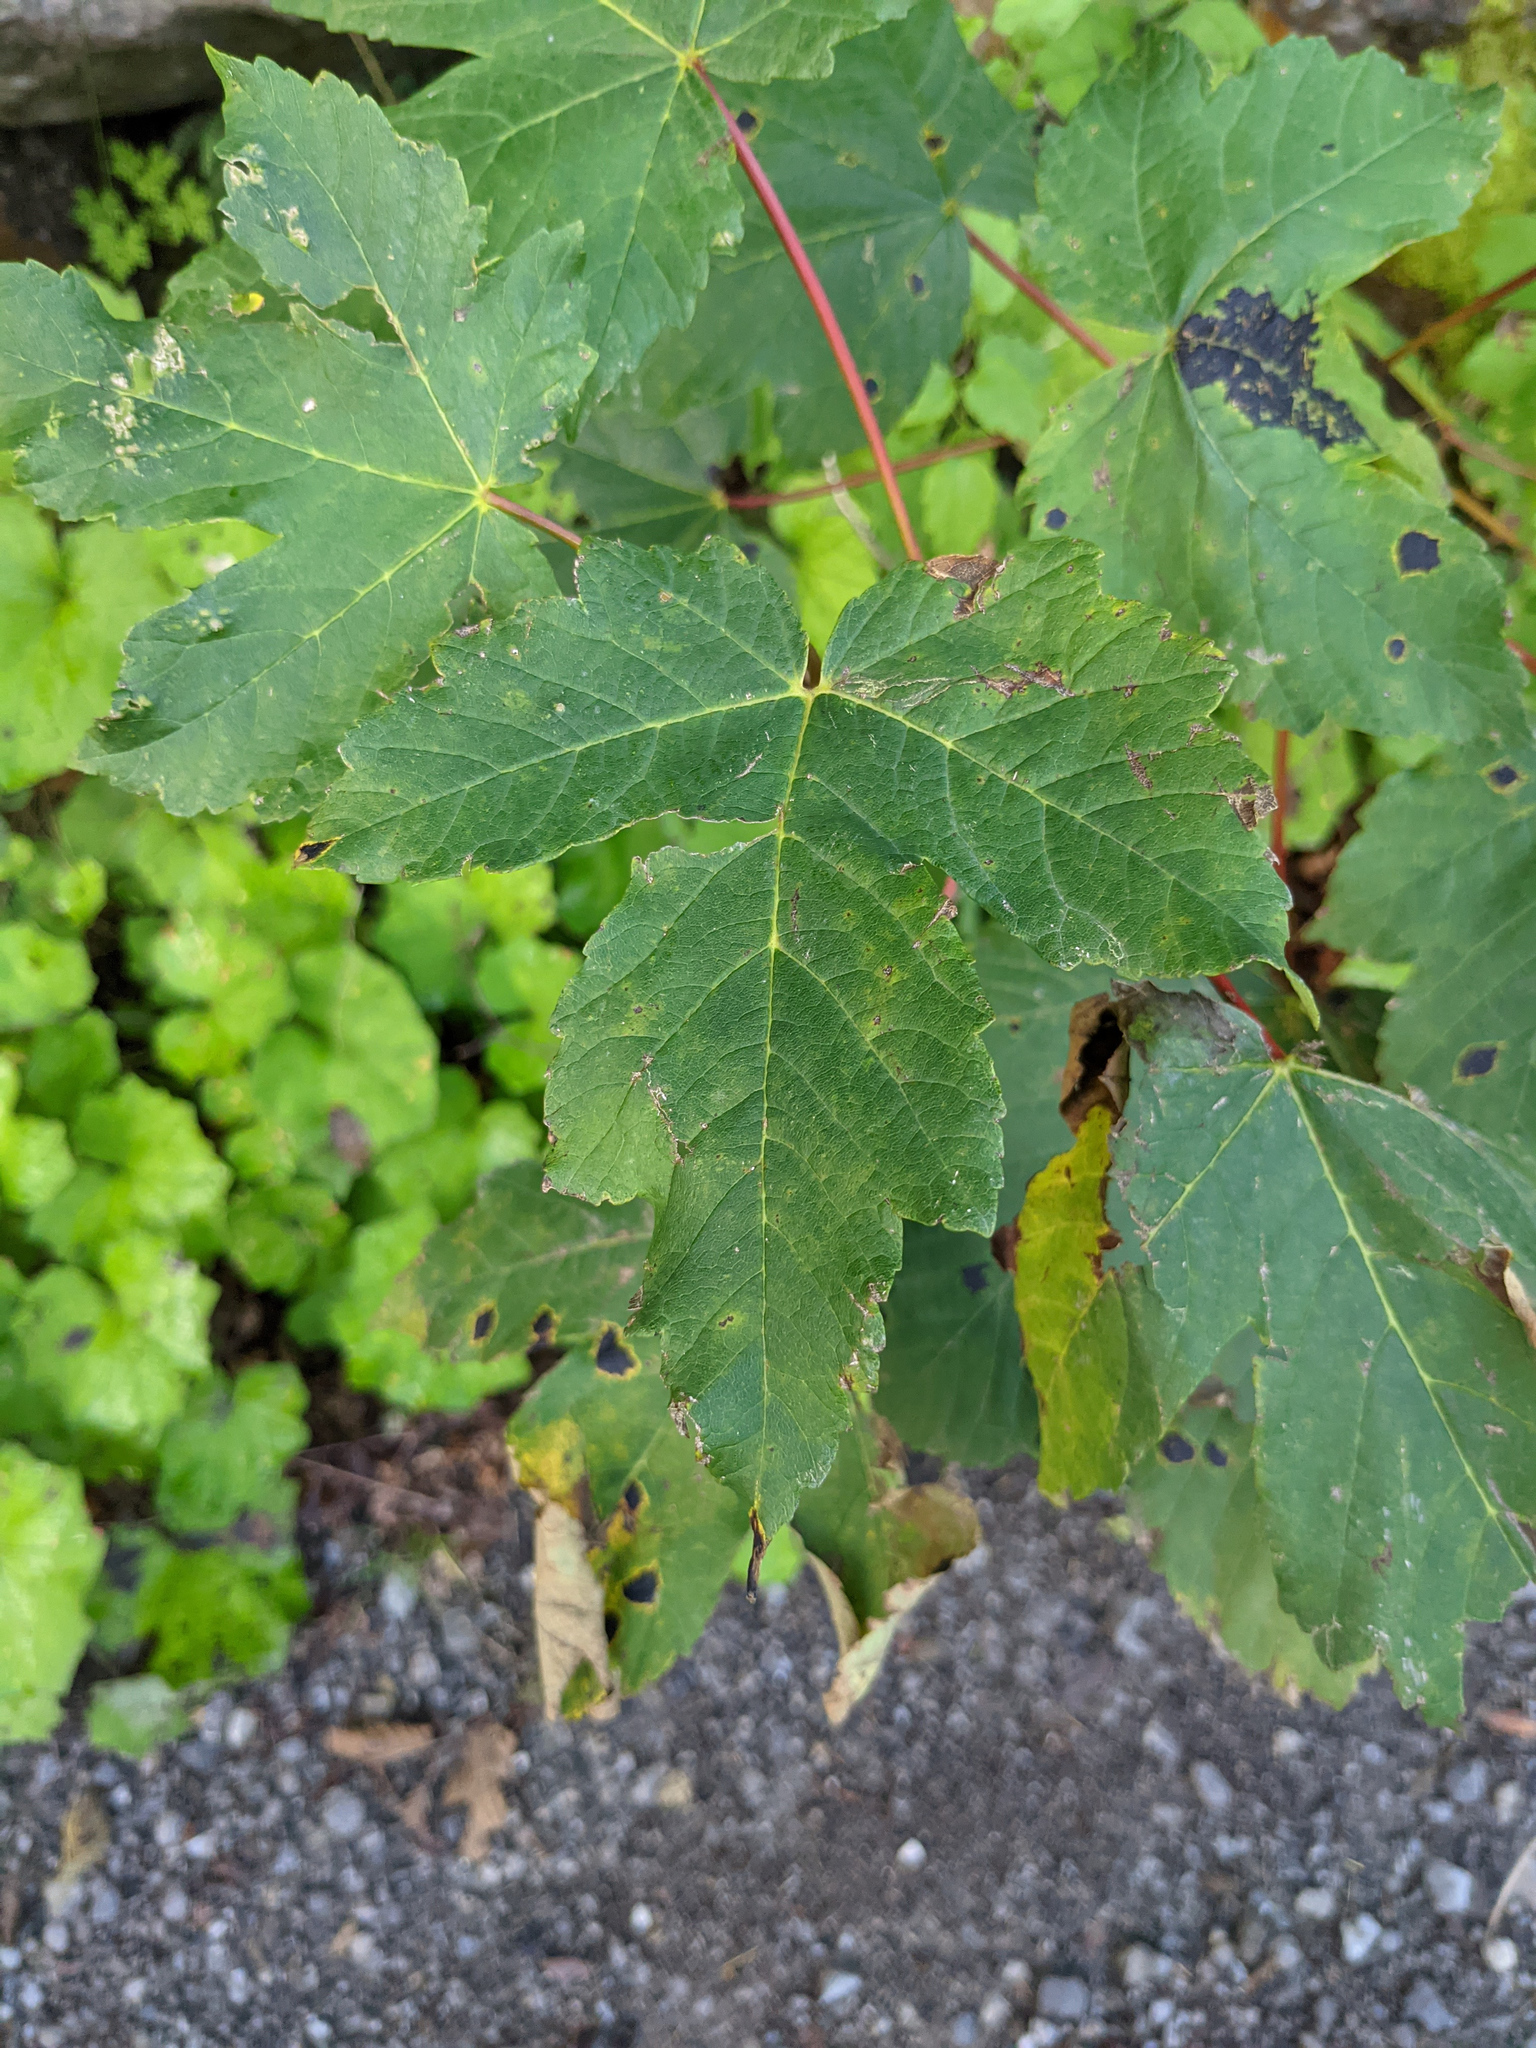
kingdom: Plantae
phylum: Tracheophyta
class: Magnoliopsida
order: Sapindales
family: Sapindaceae
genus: Acer
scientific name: Acer pseudoplatanus
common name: Sycamore
